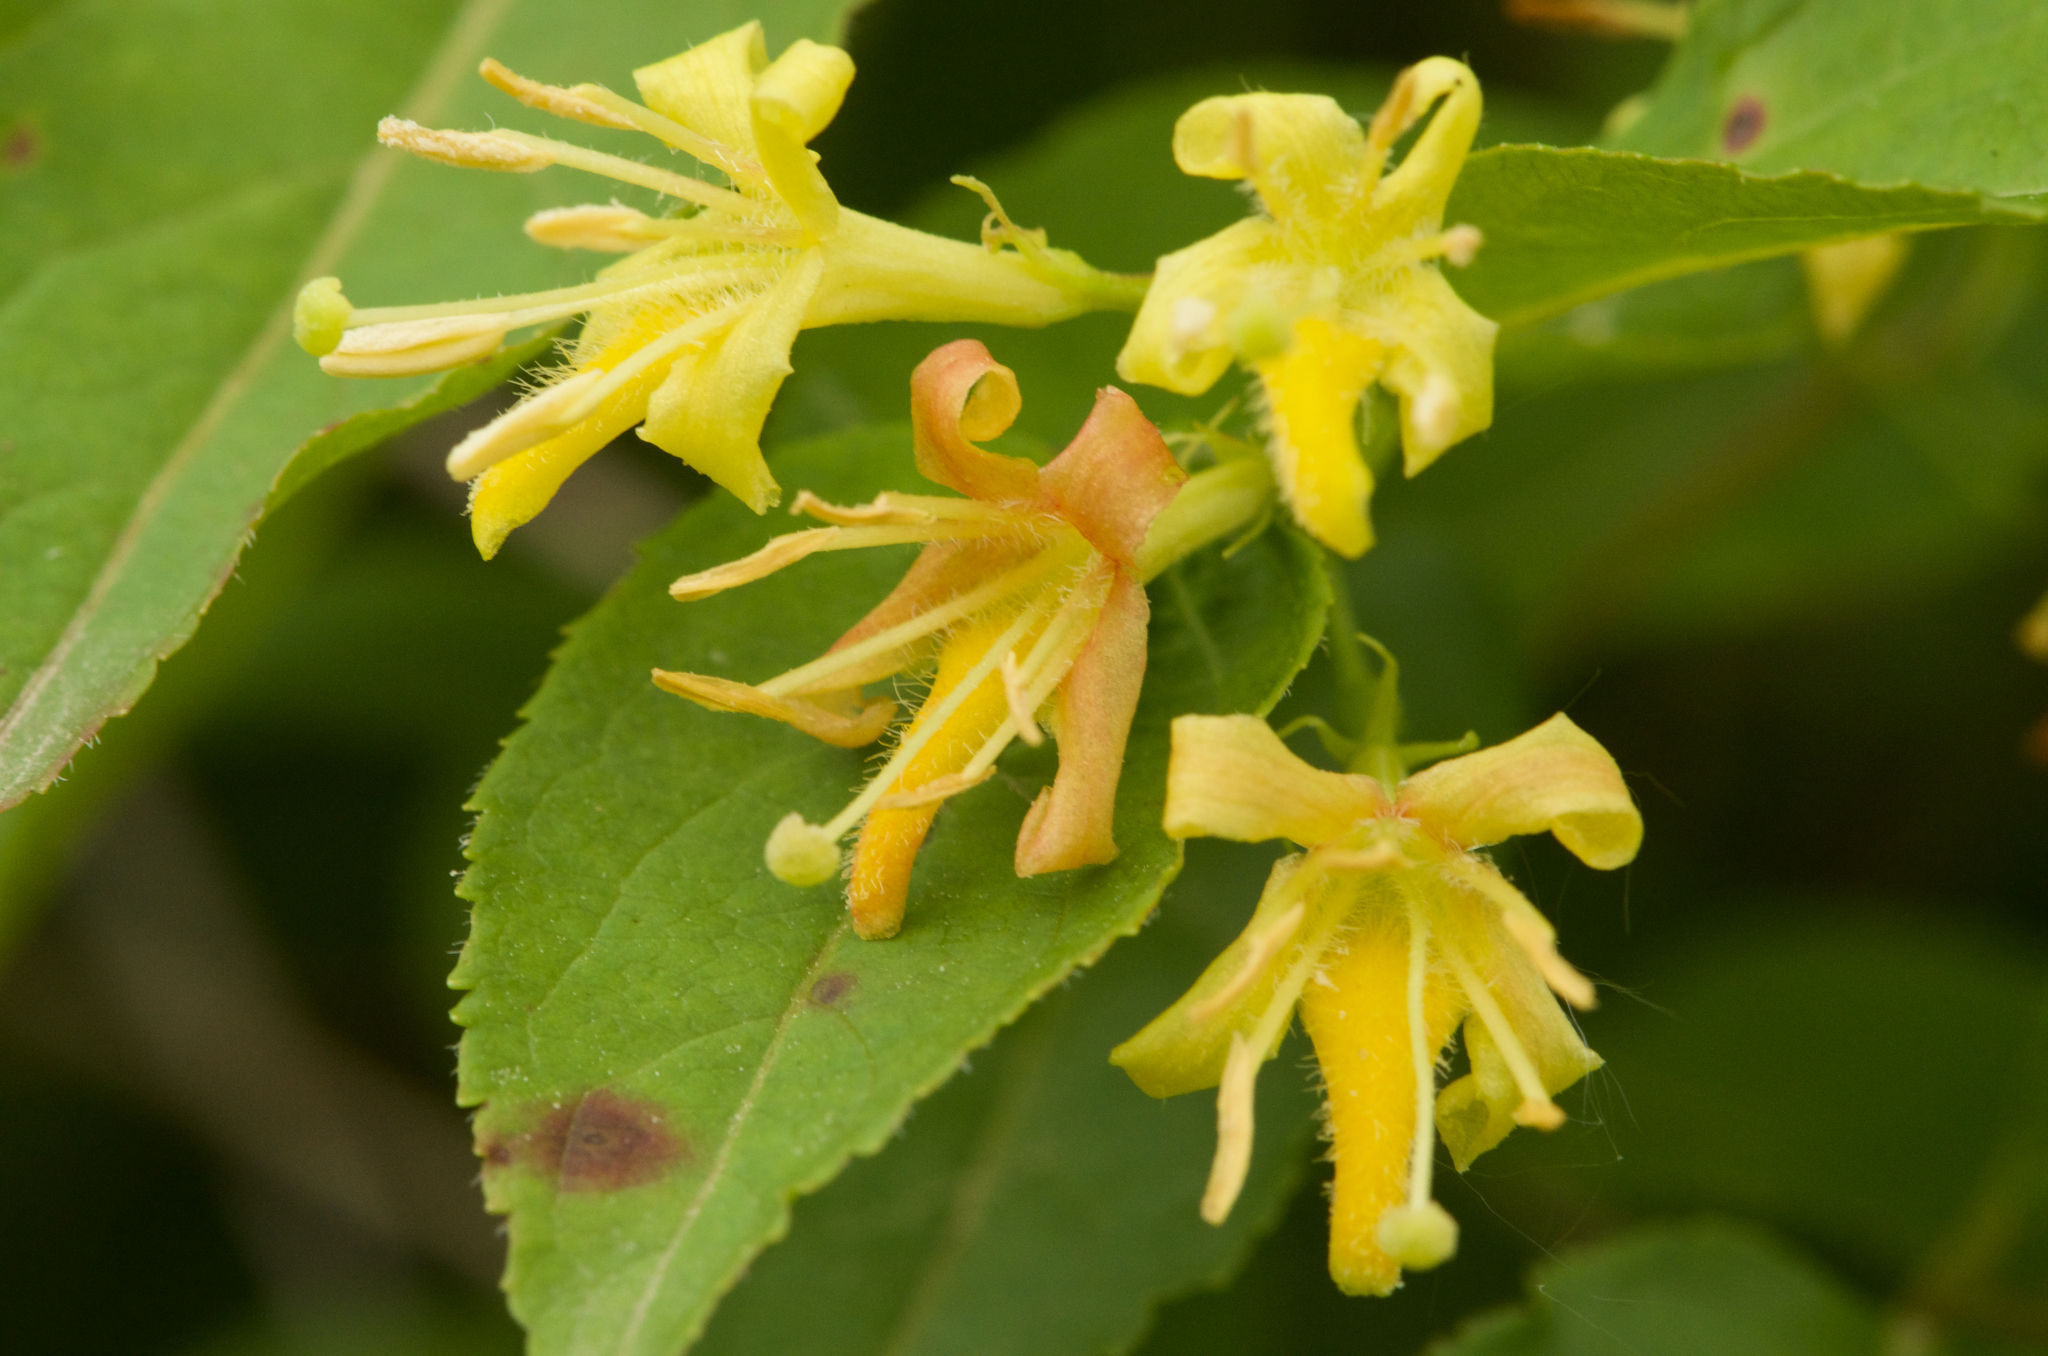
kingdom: Plantae
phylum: Tracheophyta
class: Magnoliopsida
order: Dipsacales
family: Caprifoliaceae
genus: Diervilla
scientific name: Diervilla lonicera
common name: Bush-honeysuckle
